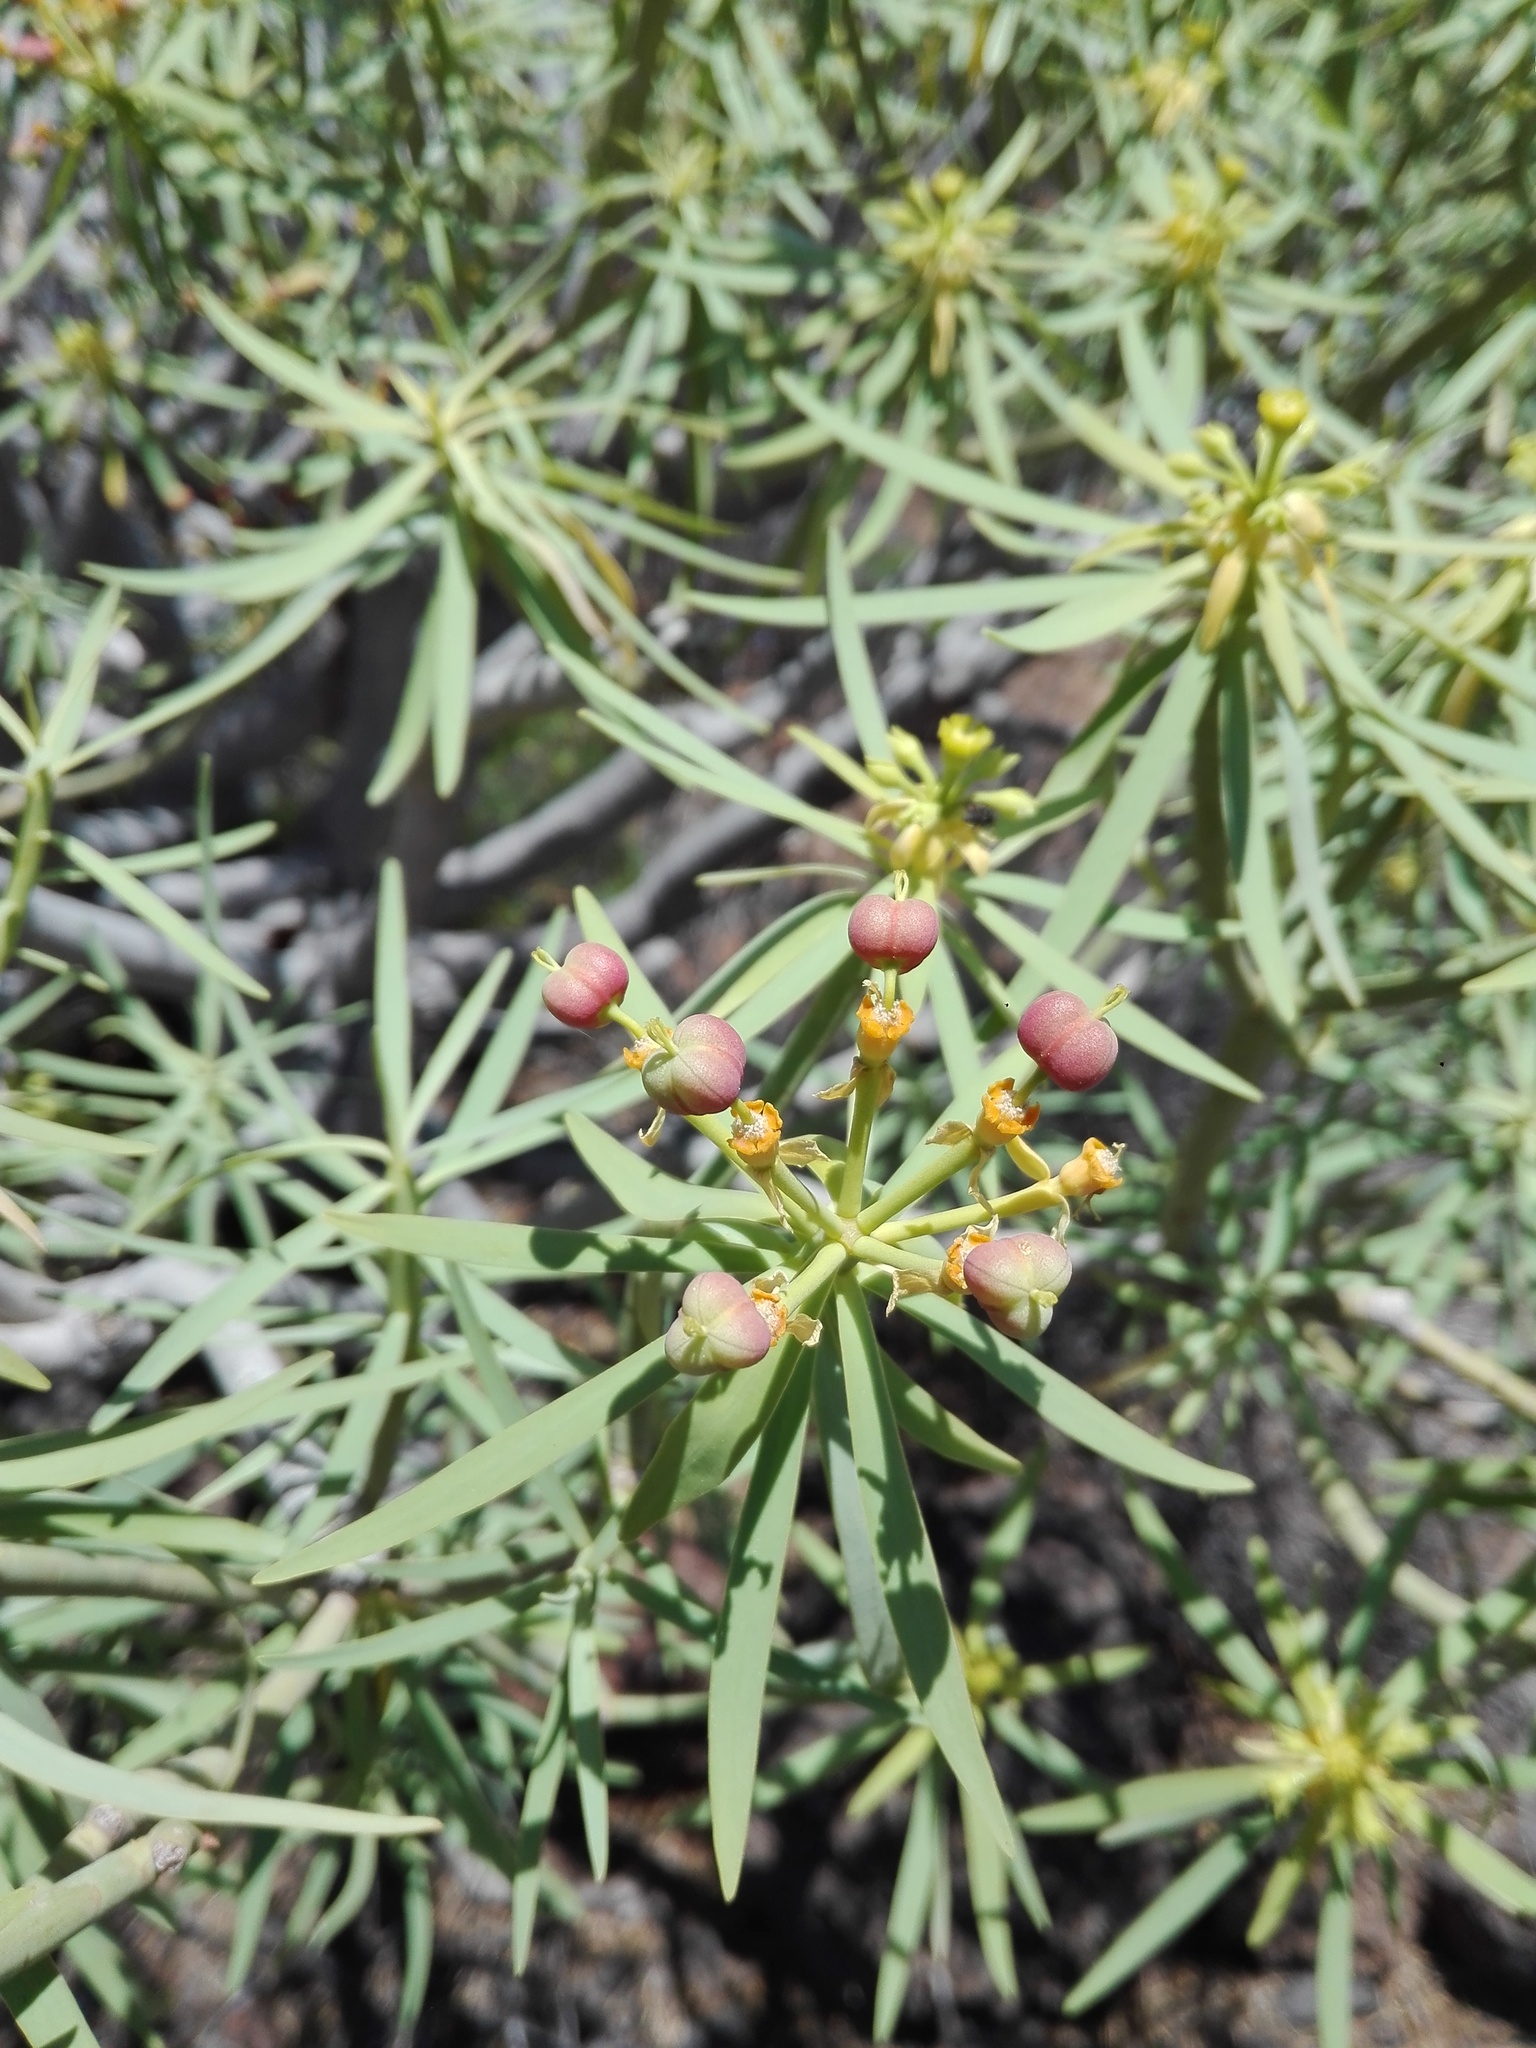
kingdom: Plantae
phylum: Tracheophyta
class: Magnoliopsida
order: Malpighiales
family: Euphorbiaceae
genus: Euphorbia
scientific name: Euphorbia lamarckii
